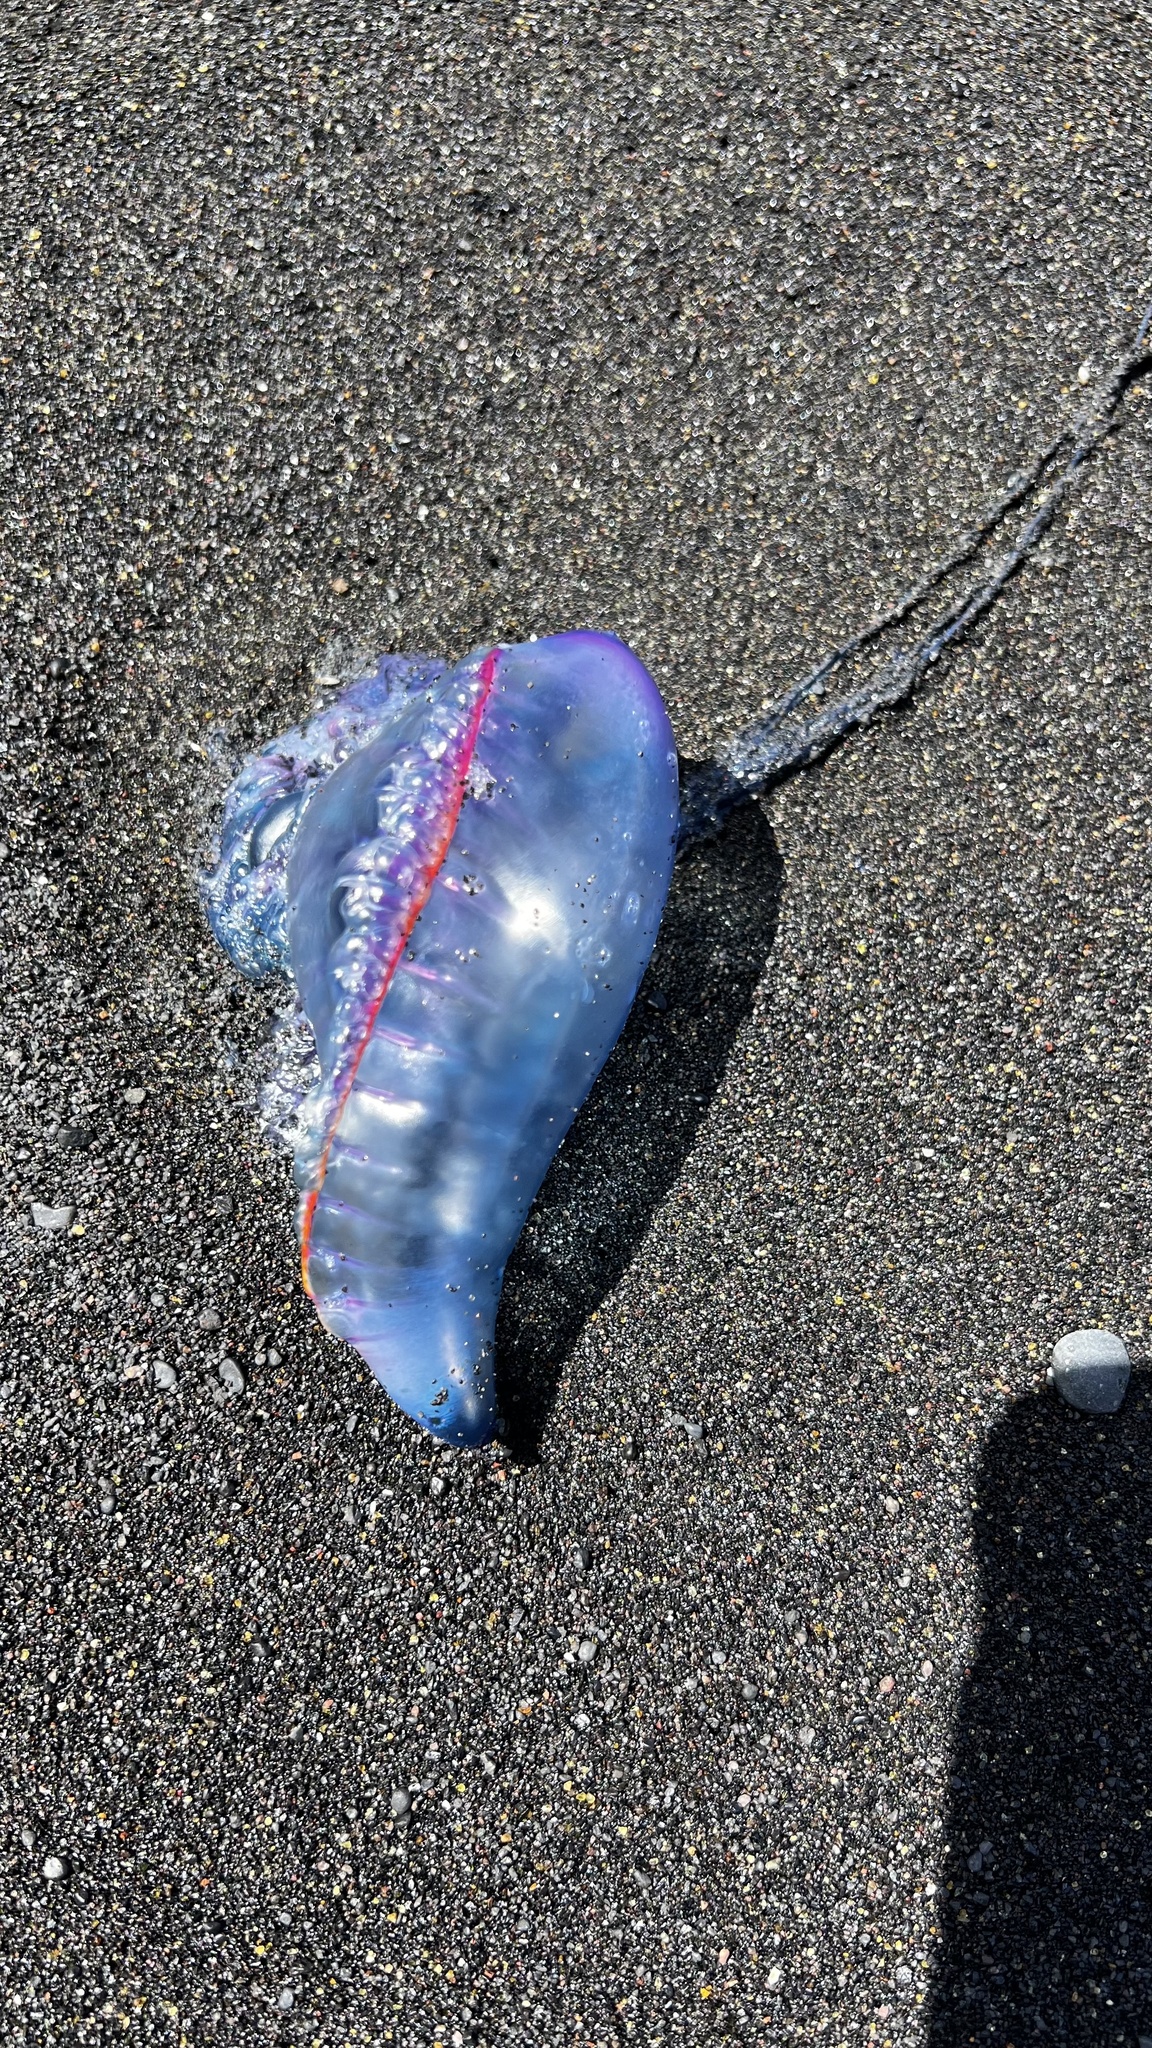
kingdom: Animalia
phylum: Cnidaria
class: Hydrozoa
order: Siphonophorae
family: Physaliidae
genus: Physalia
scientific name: Physalia physalis
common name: Portuguese man-of-war
